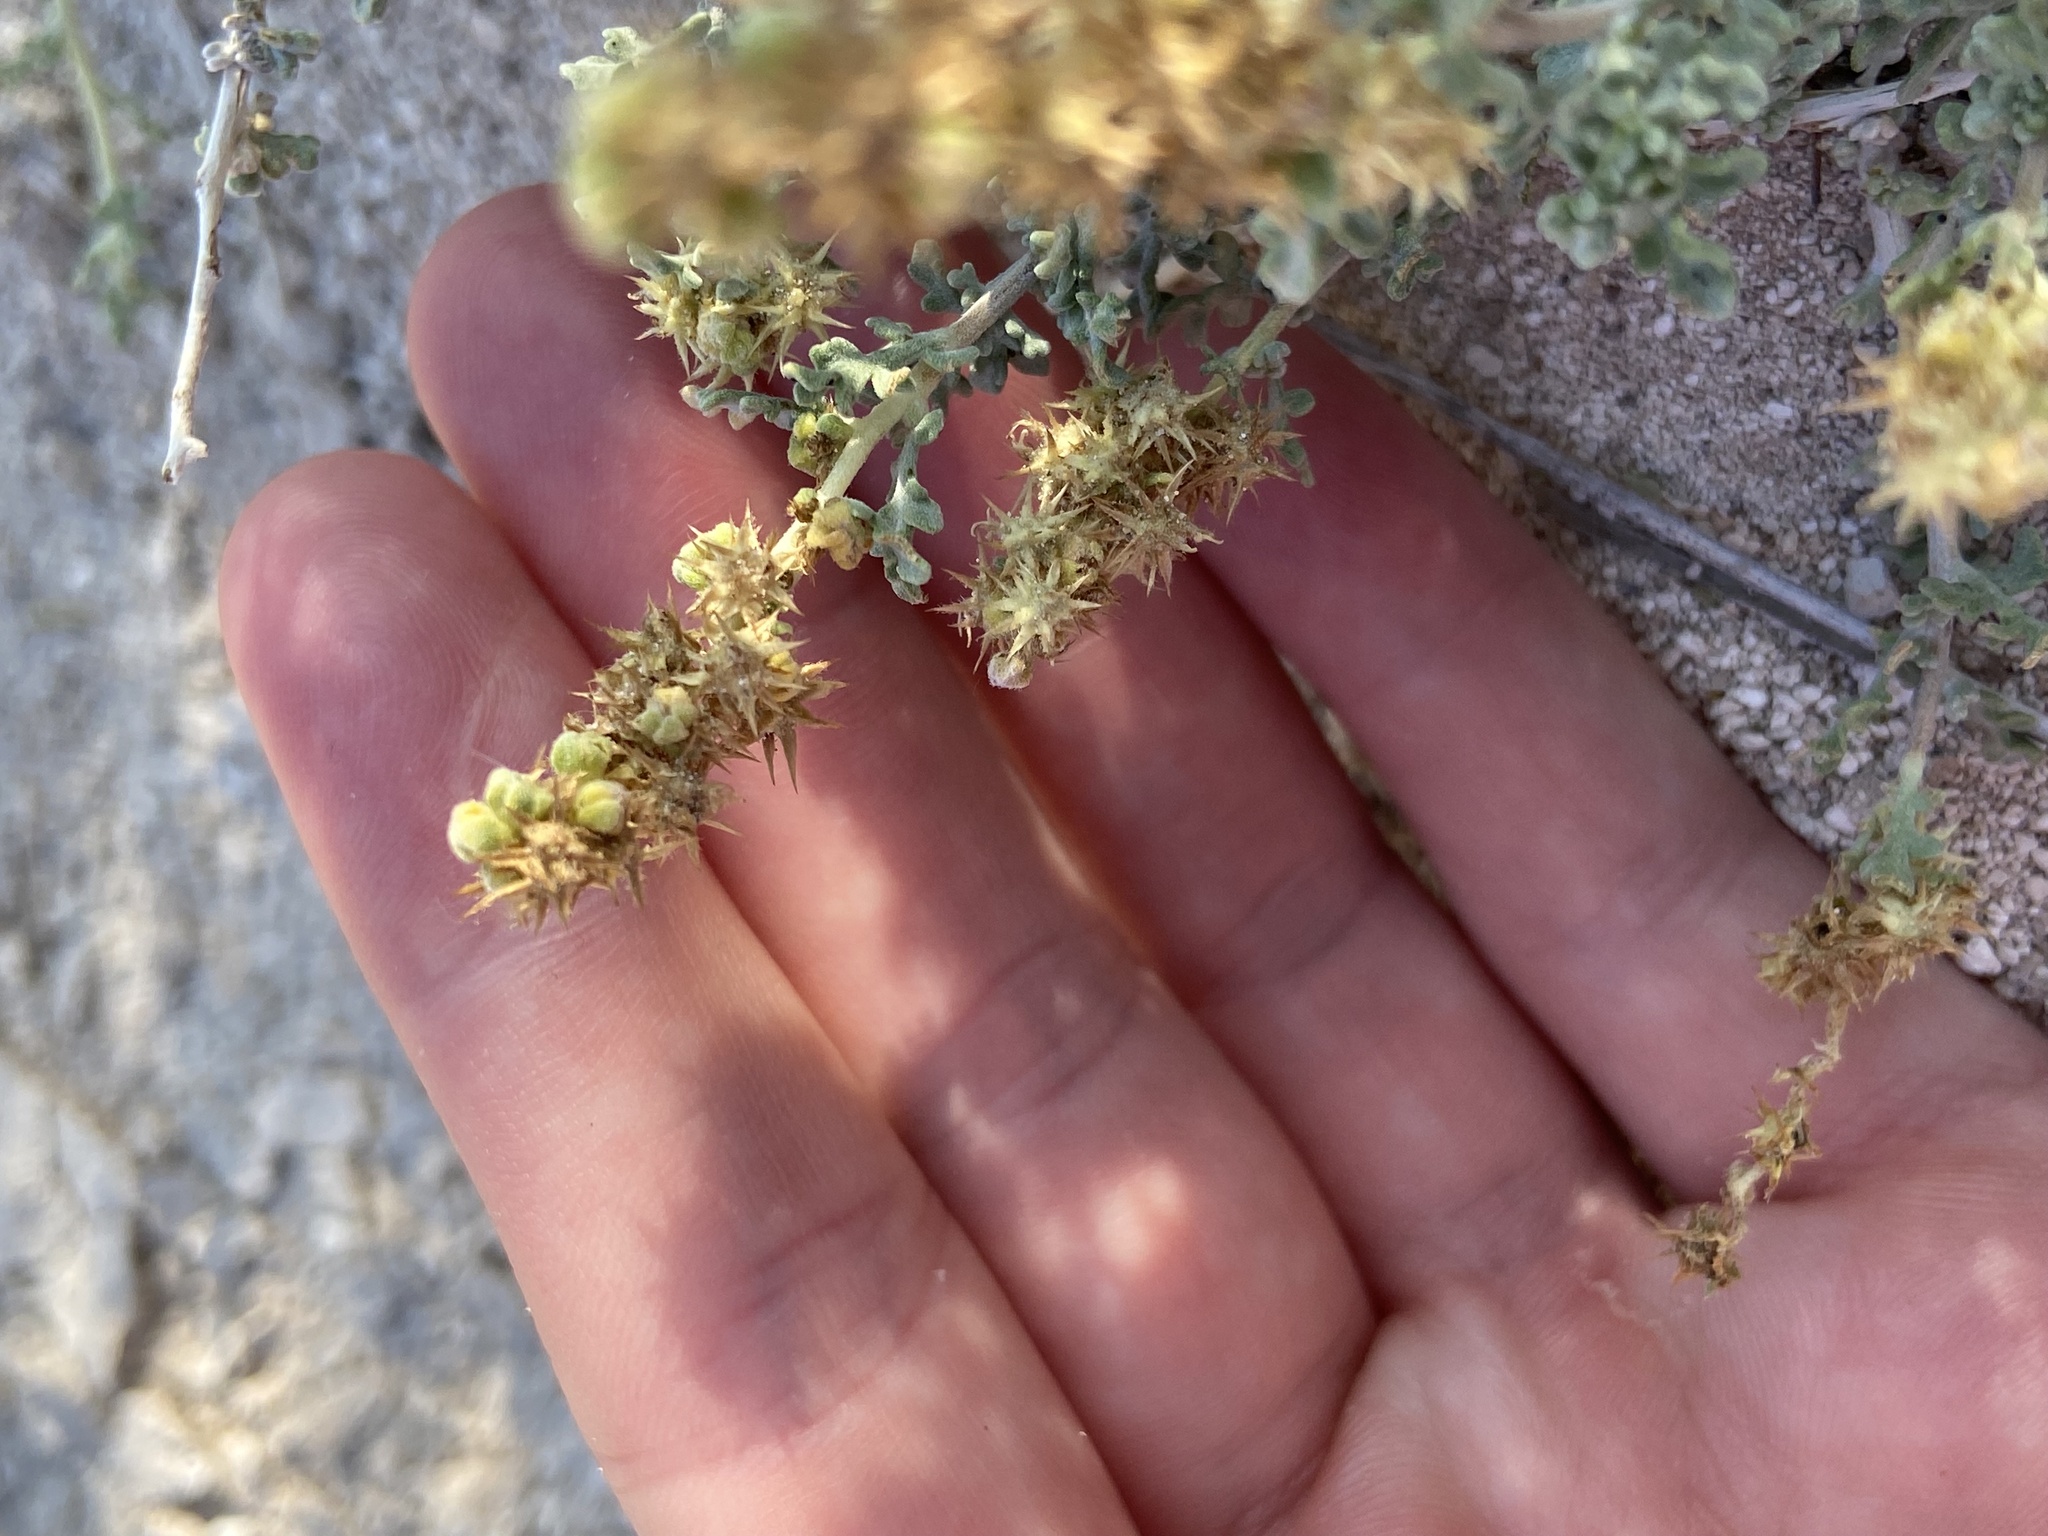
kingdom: Plantae
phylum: Tracheophyta
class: Magnoliopsida
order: Asterales
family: Asteraceae
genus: Ambrosia
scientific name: Ambrosia dumosa
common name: Bur-sage
